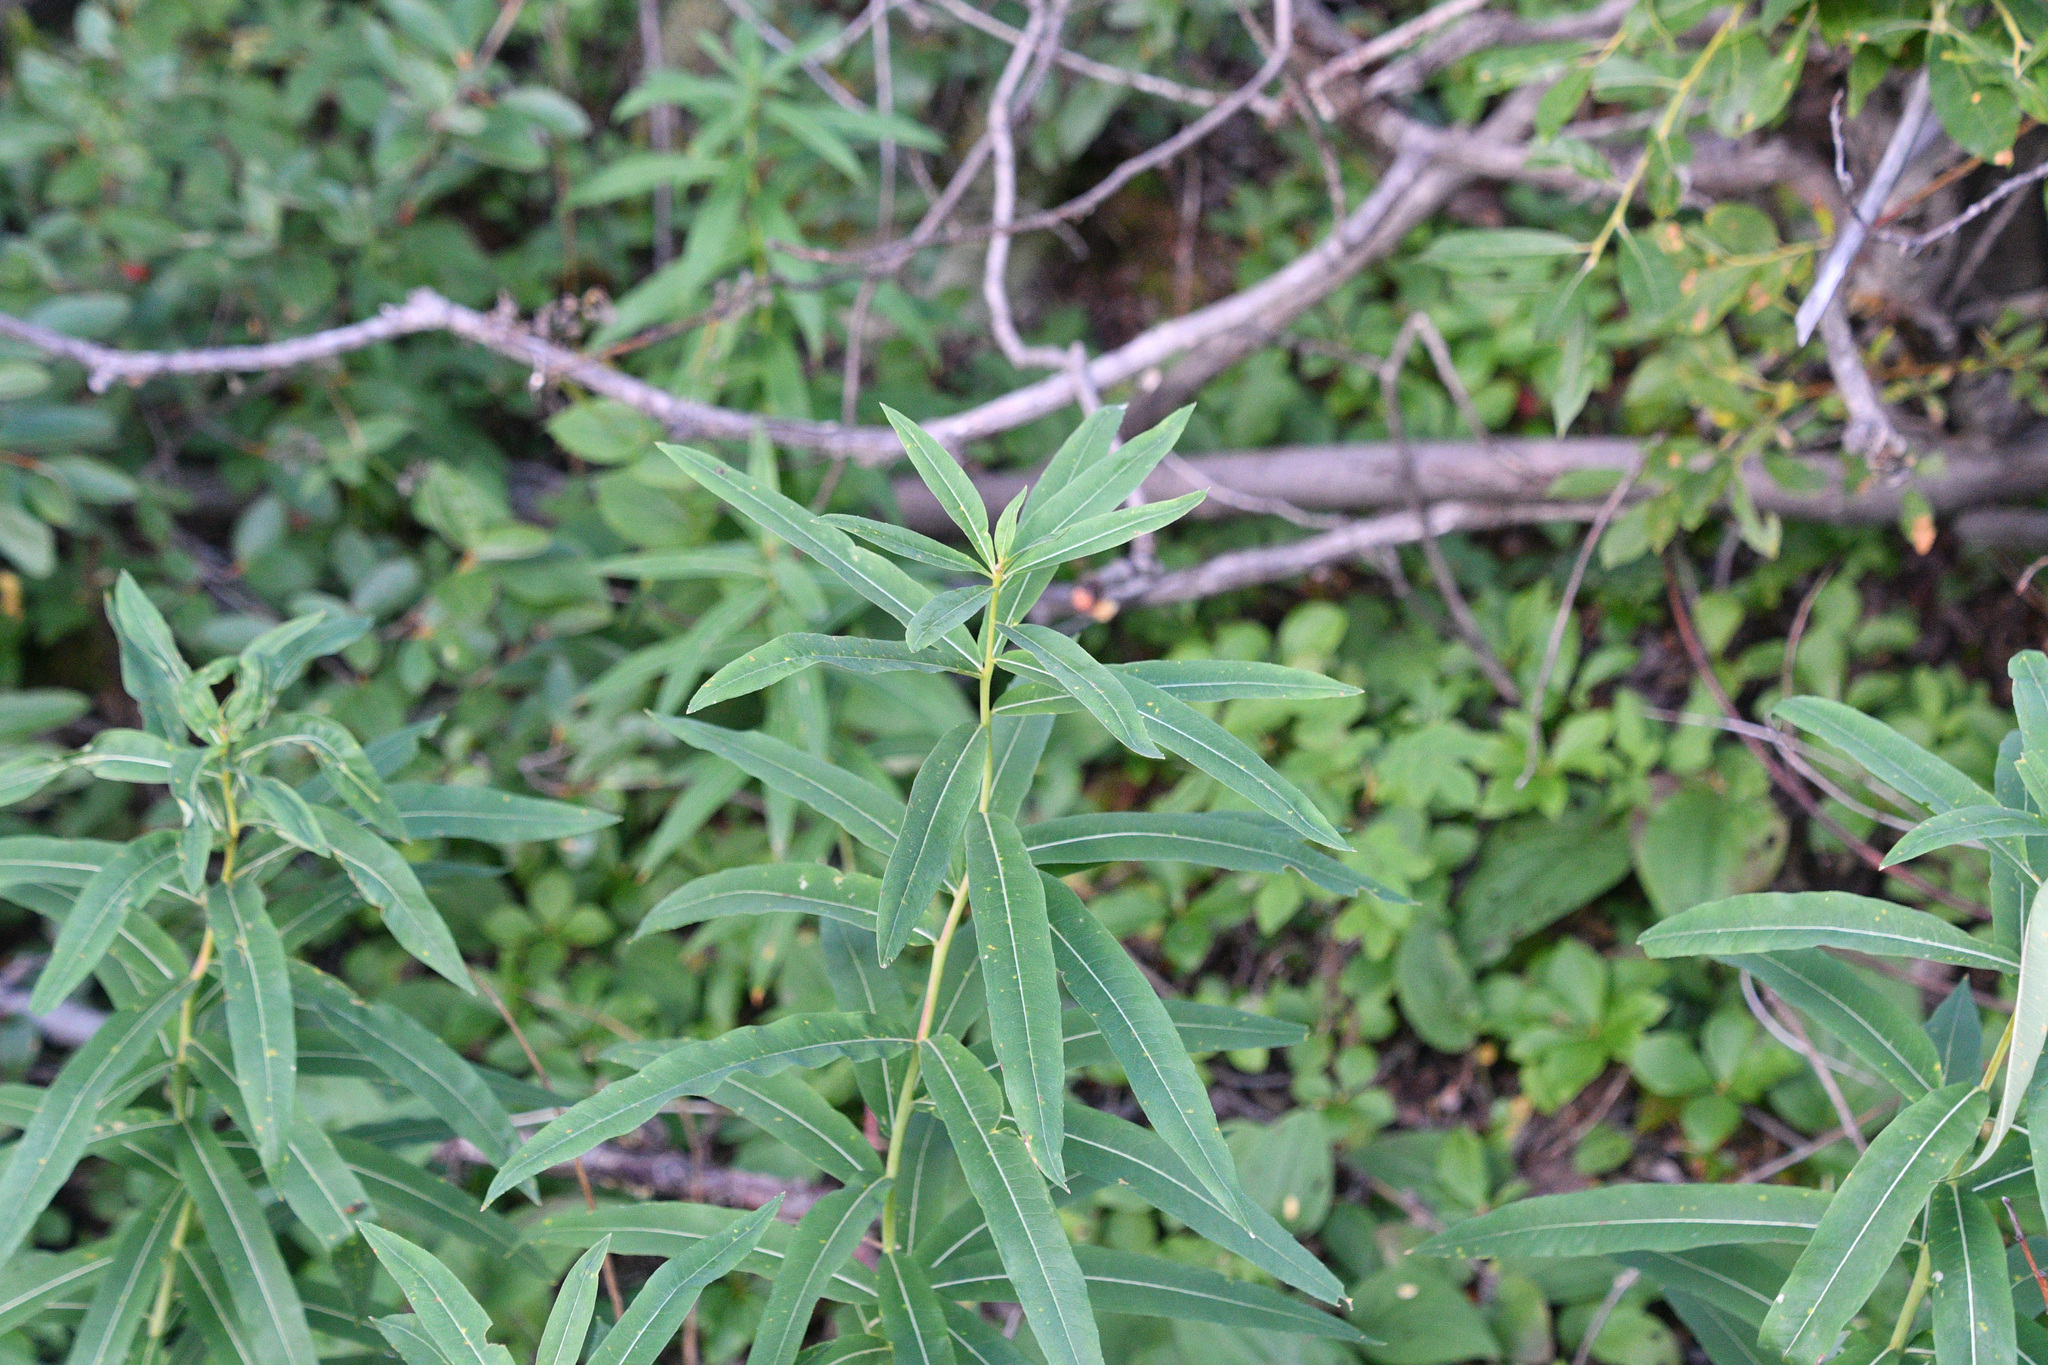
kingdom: Plantae
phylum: Tracheophyta
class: Magnoliopsida
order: Myrtales
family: Onagraceae
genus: Chamaenerion
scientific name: Chamaenerion angustifolium
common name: Fireweed
